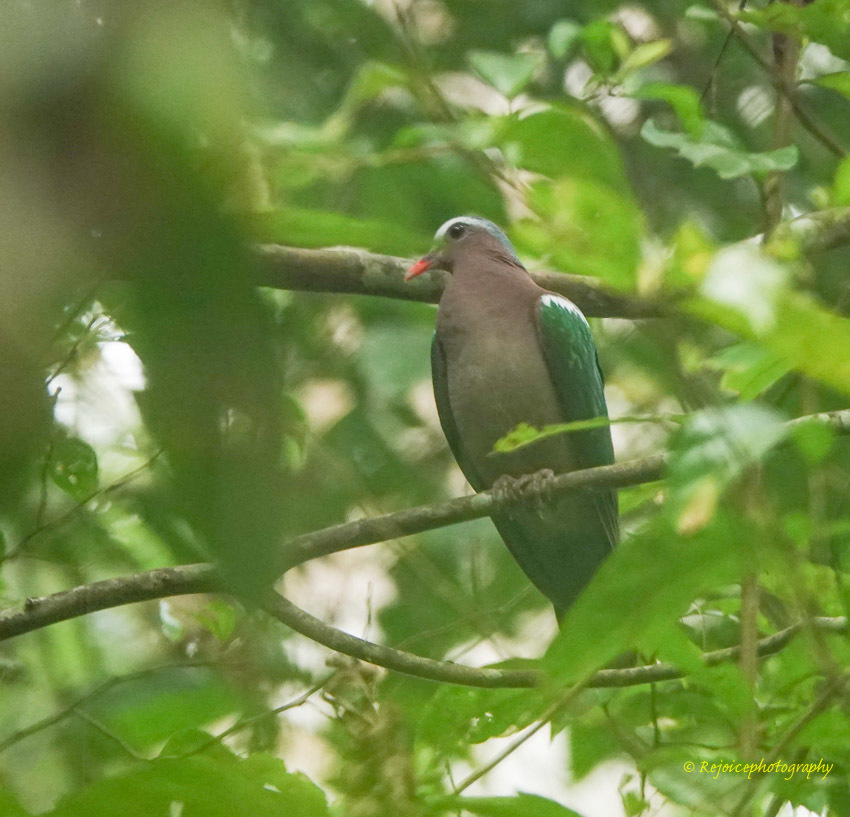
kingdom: Animalia
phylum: Chordata
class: Aves
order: Columbiformes
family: Columbidae
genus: Chalcophaps
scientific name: Chalcophaps indica
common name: Common emerald dove
